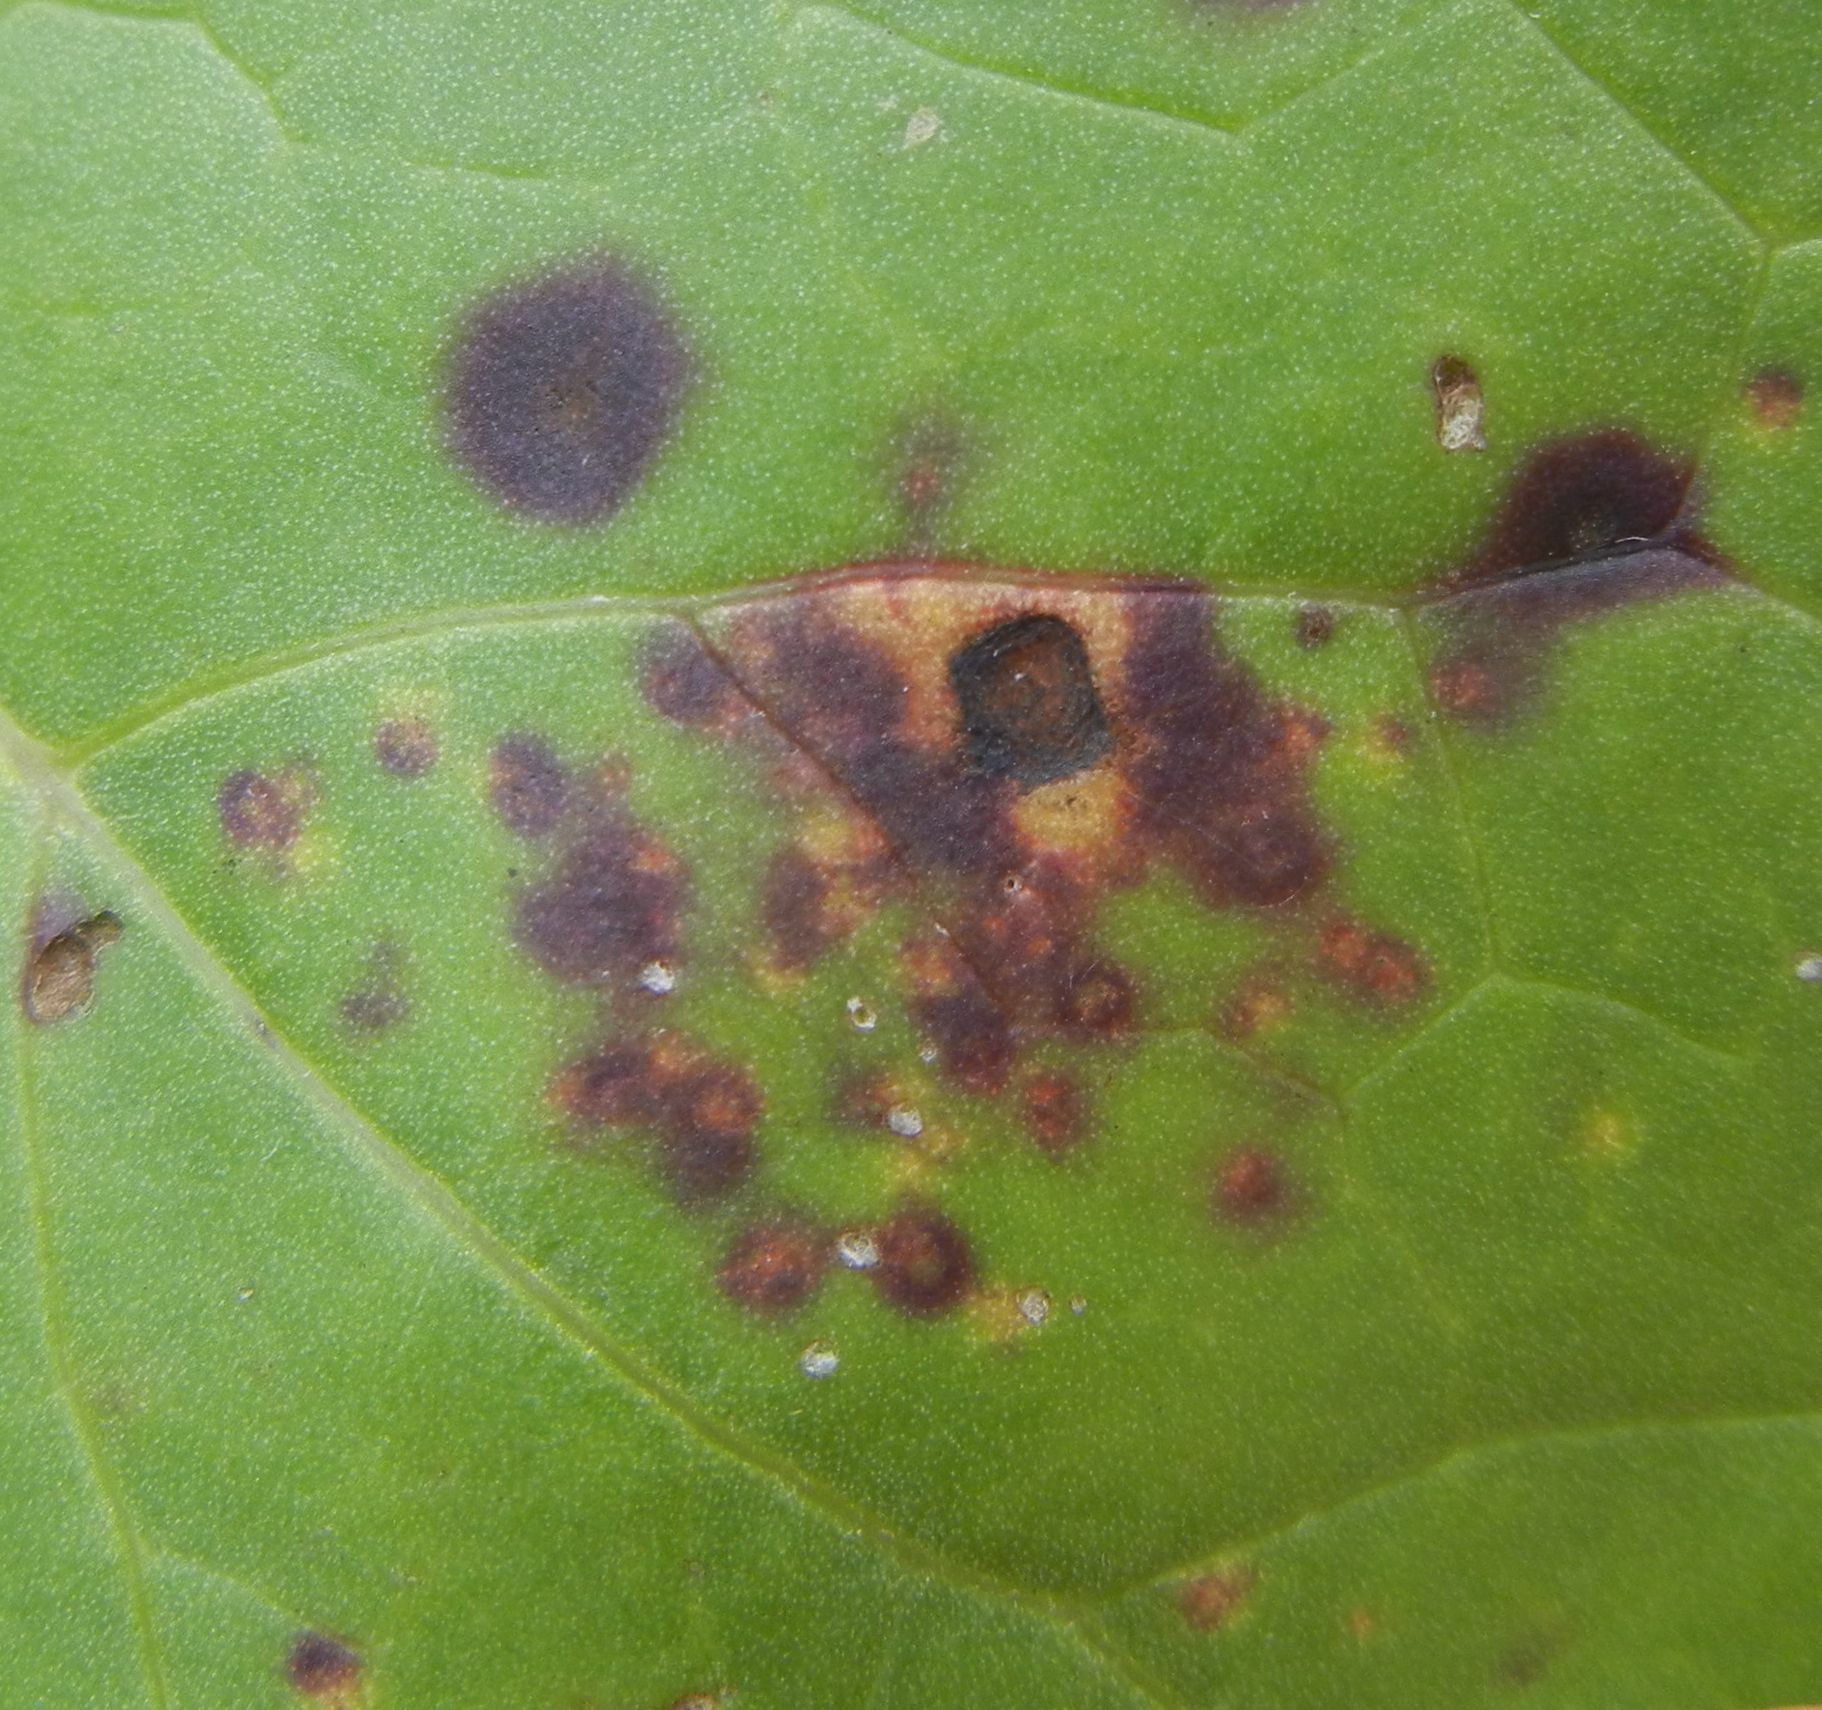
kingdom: Fungi
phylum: Basidiomycota
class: Pucciniomycetes
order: Pucciniales
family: Coleosporiaceae
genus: Coleosporium
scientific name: Coleosporium tussilaginis
